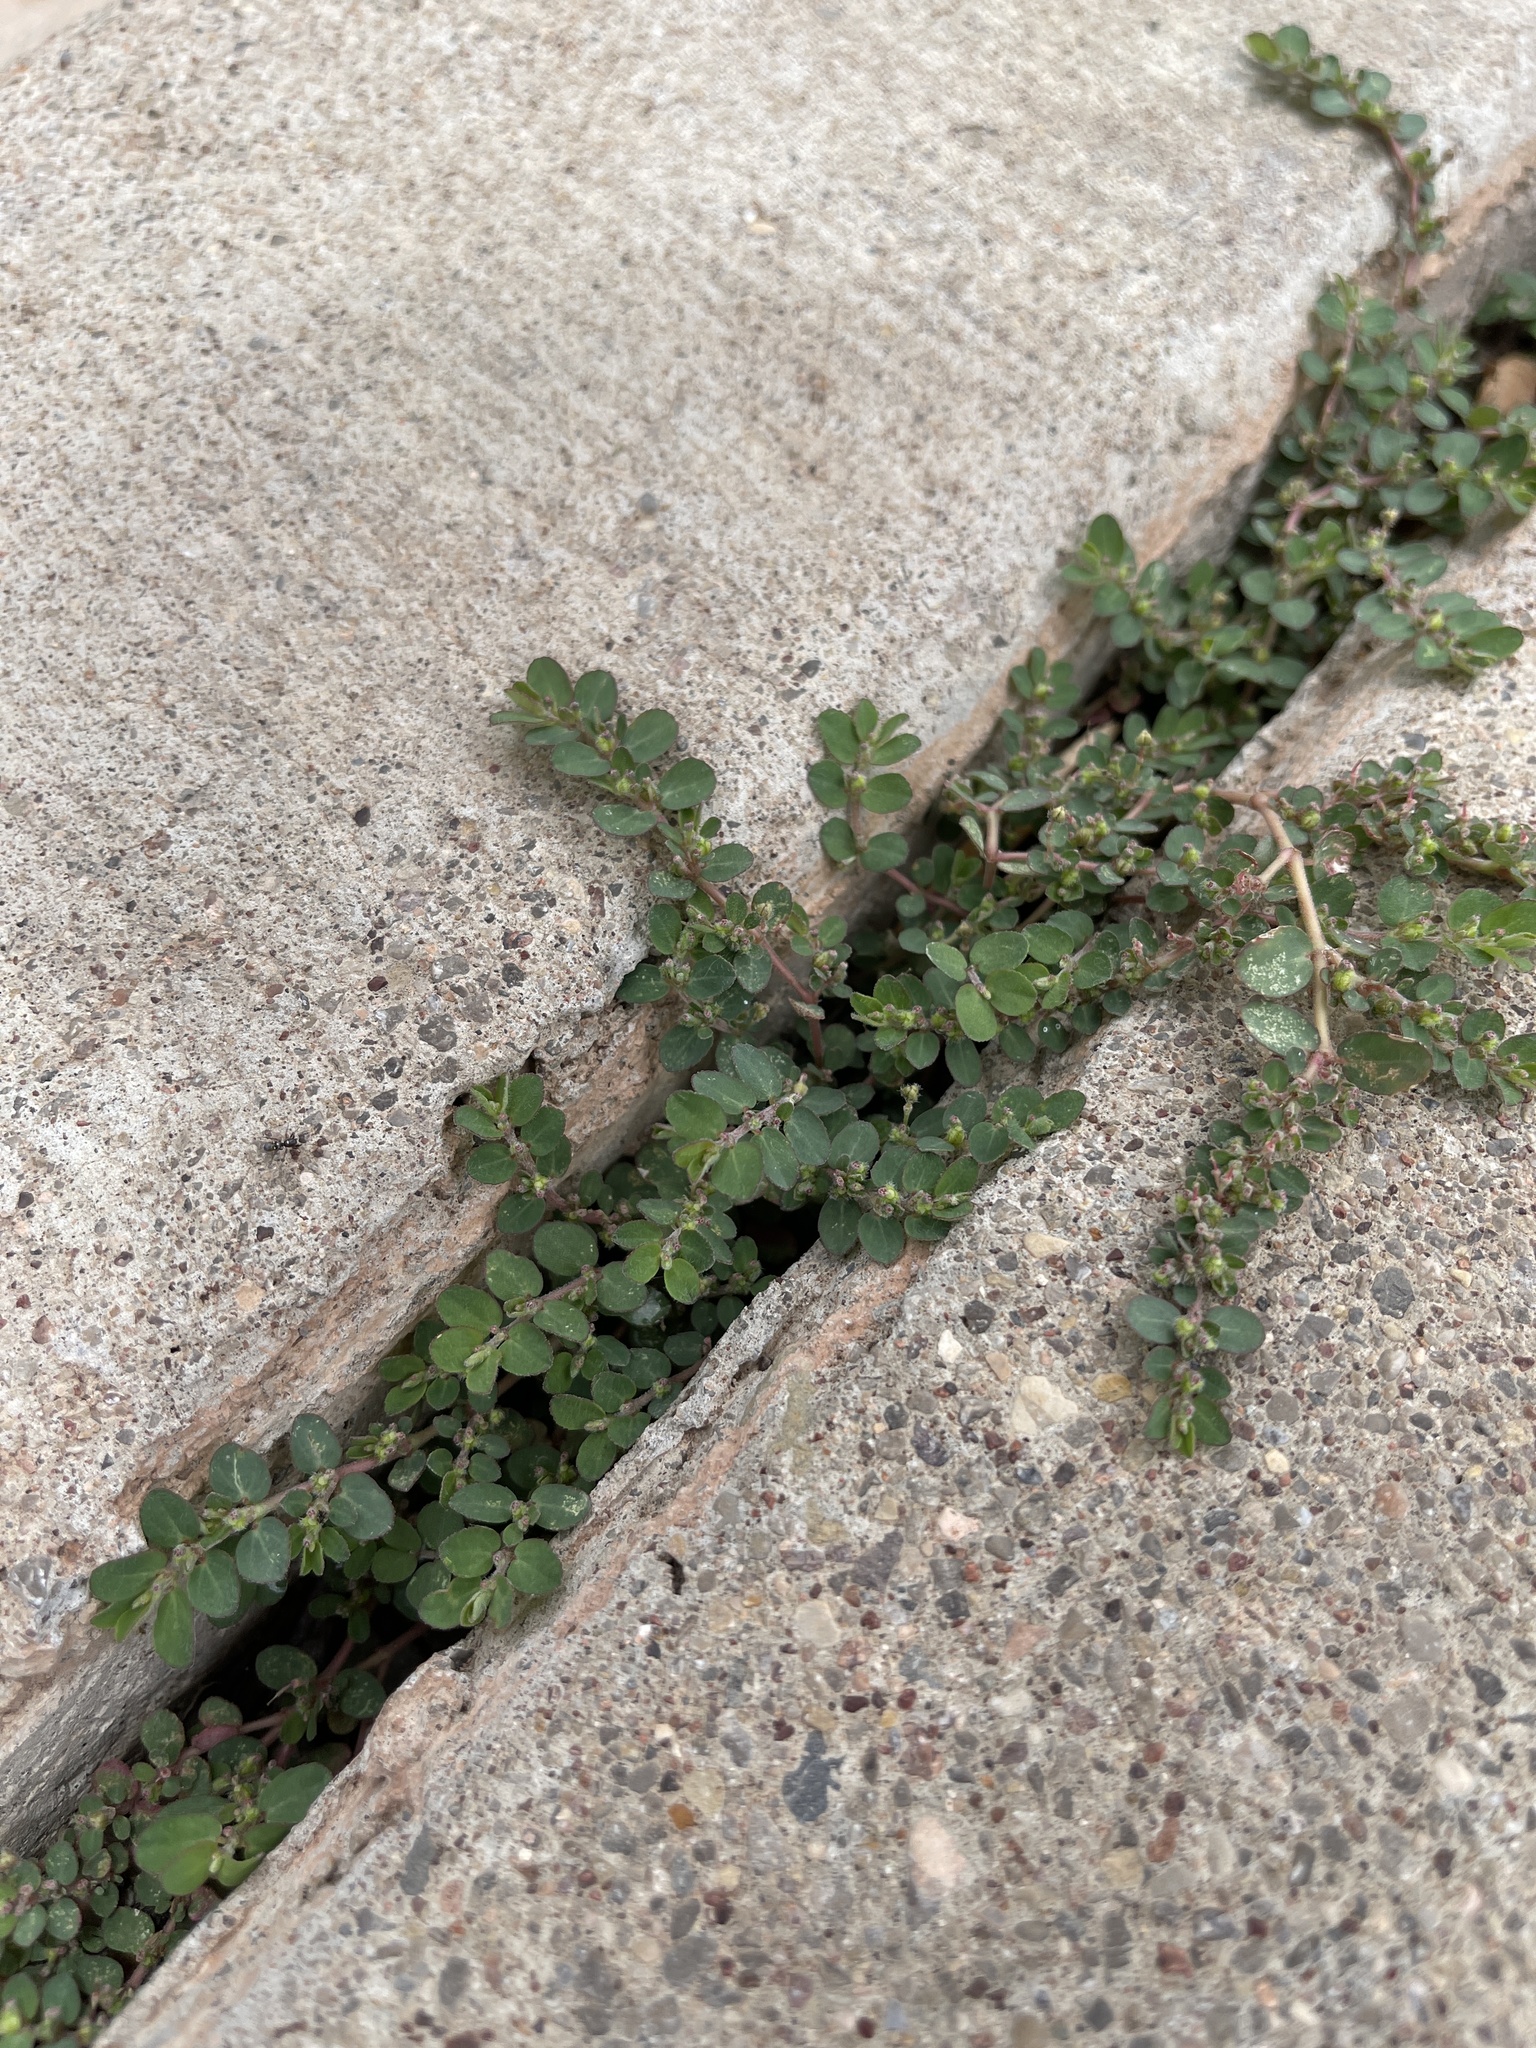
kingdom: Plantae
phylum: Tracheophyta
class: Magnoliopsida
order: Malpighiales
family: Euphorbiaceae
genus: Euphorbia
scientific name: Euphorbia prostrata
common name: Prostrate sandmat
